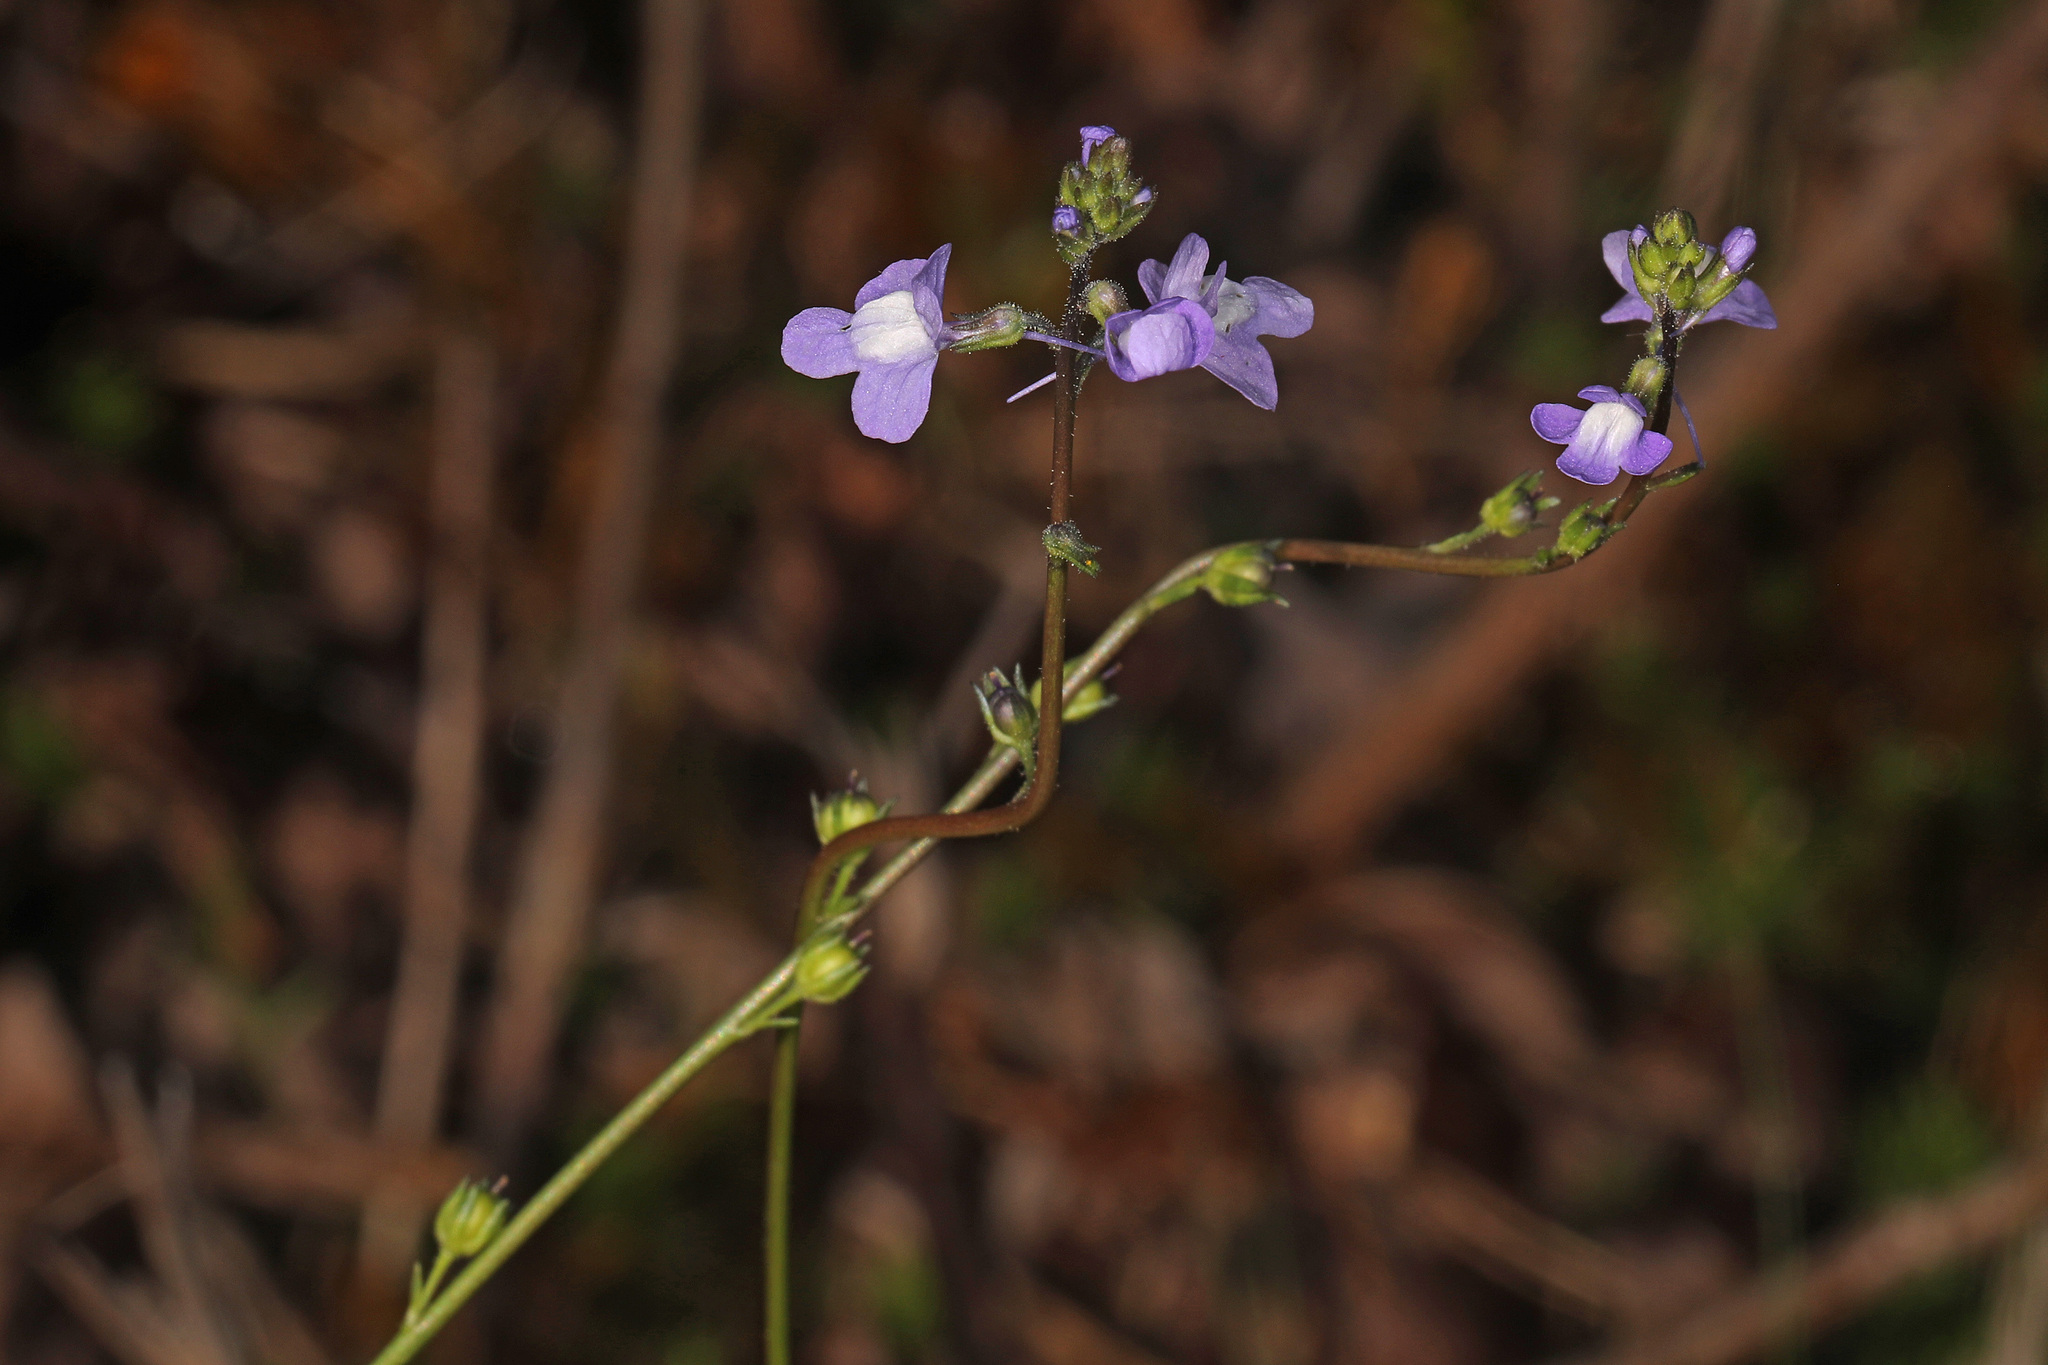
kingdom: Plantae
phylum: Tracheophyta
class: Magnoliopsida
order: Lamiales
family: Plantaginaceae
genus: Nuttallanthus
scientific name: Nuttallanthus canadensis
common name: Blue toadflax
